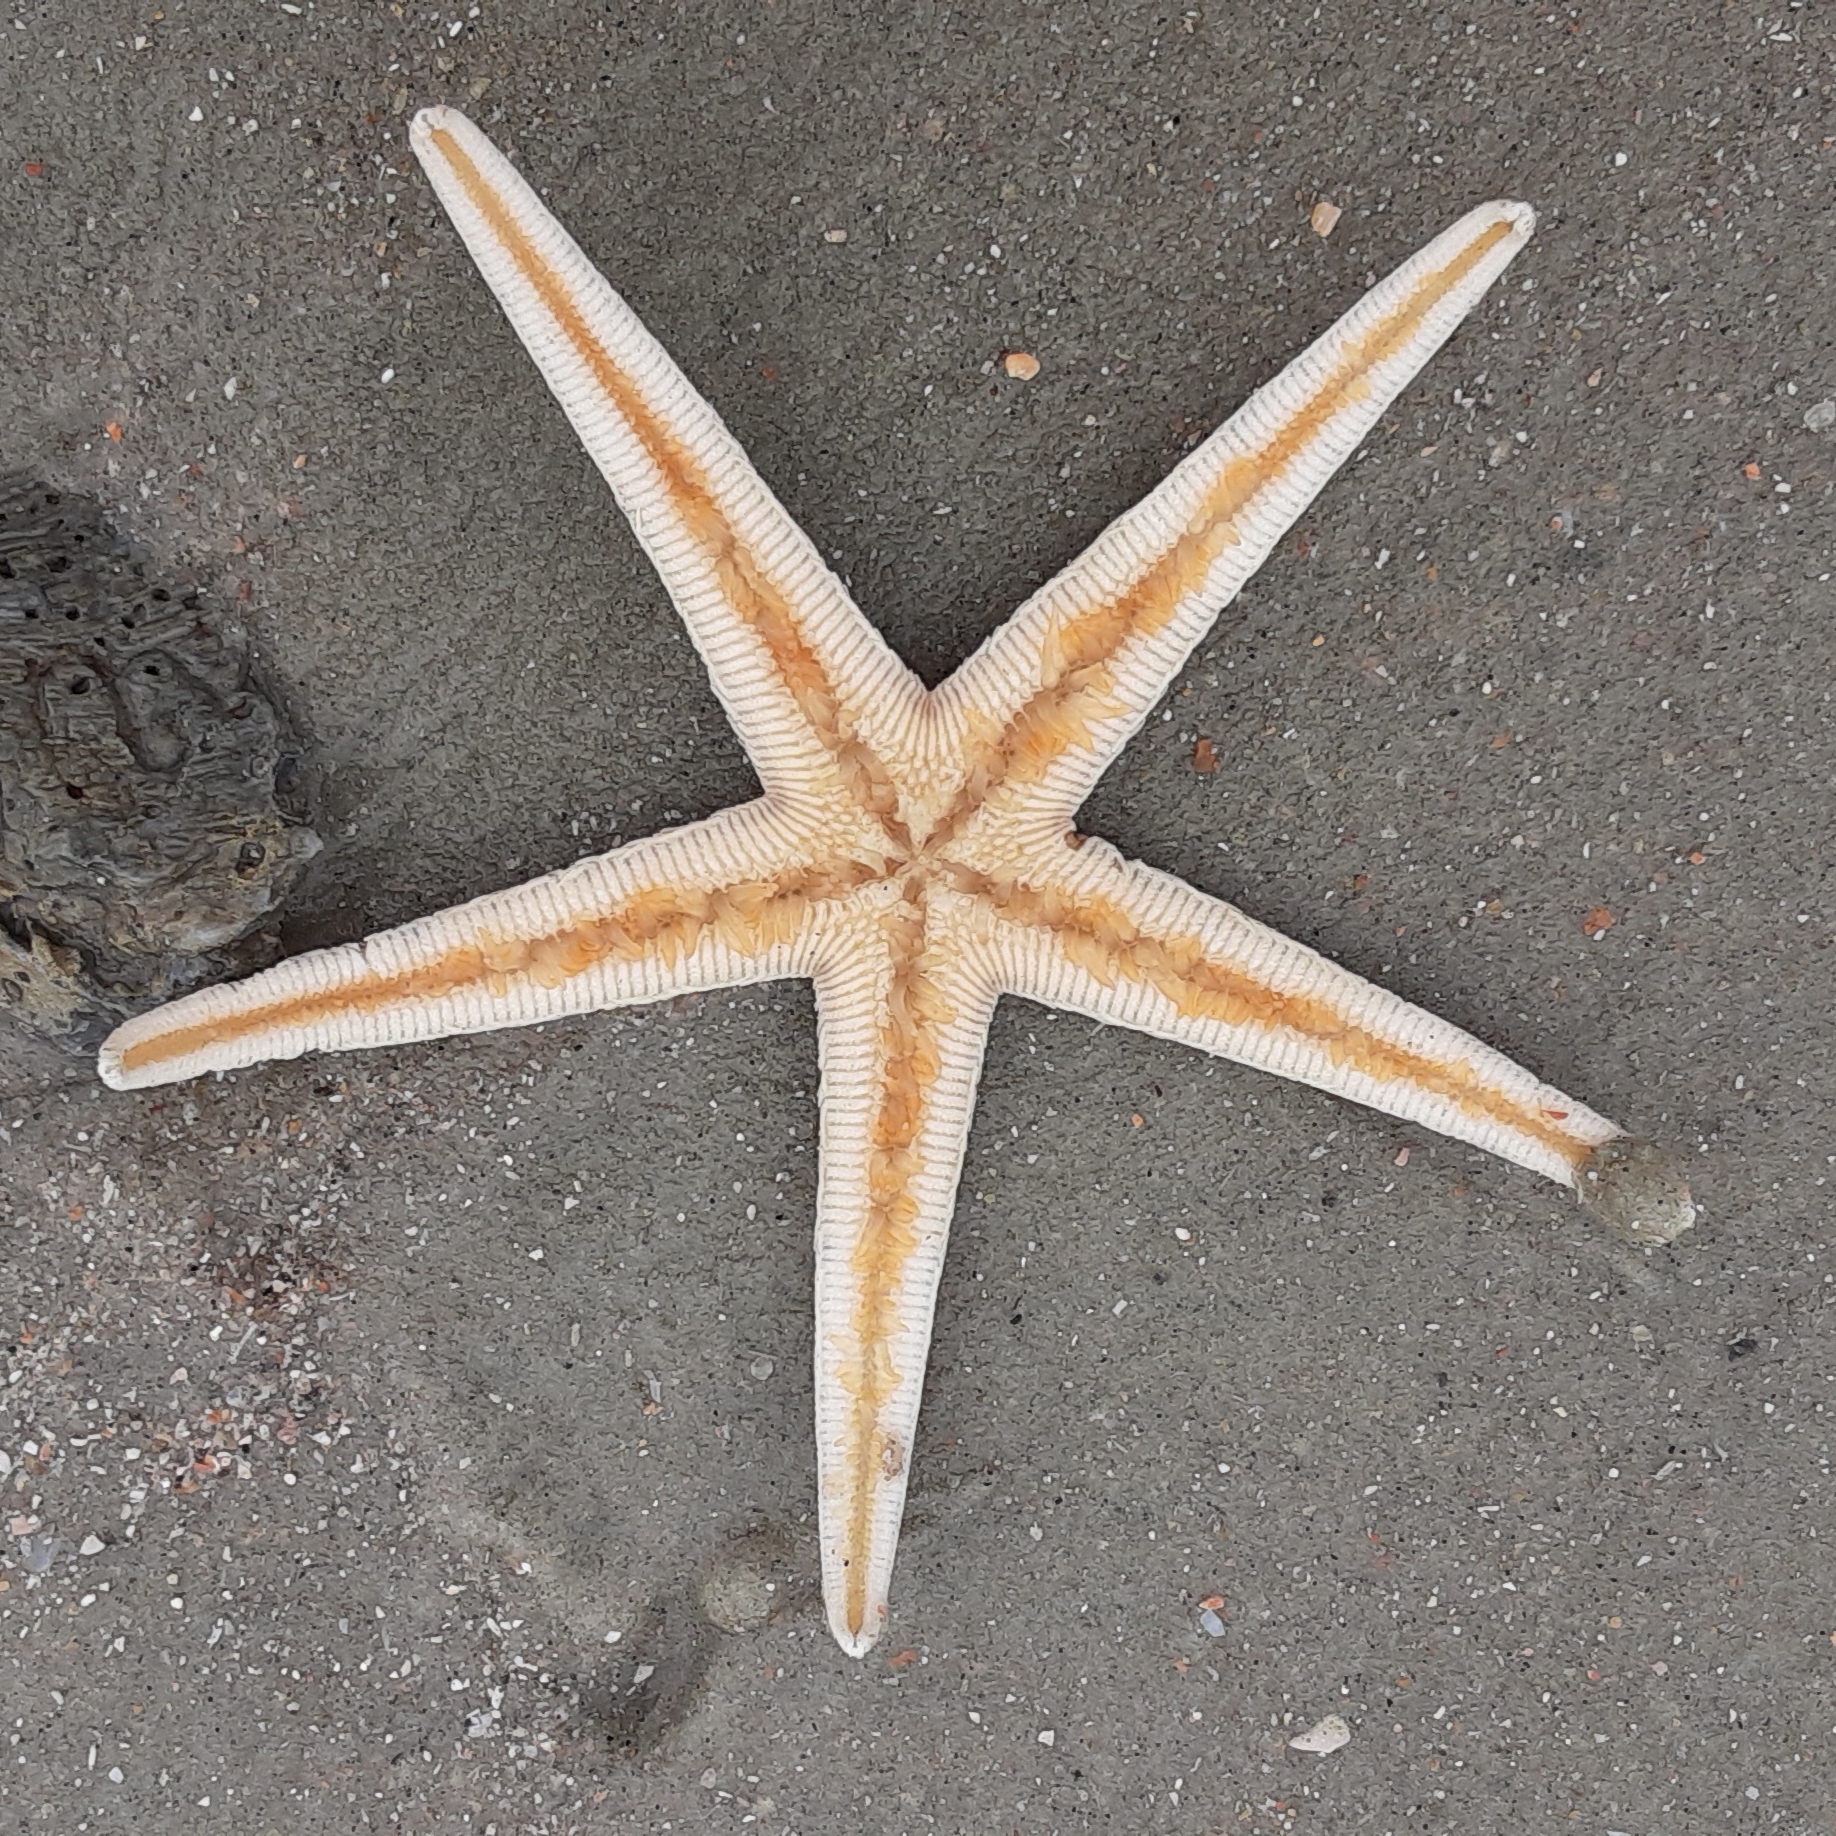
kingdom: Animalia
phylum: Echinodermata
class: Asteroidea
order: Paxillosida
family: Luidiidae
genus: Luidia
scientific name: Luidia clathrata
